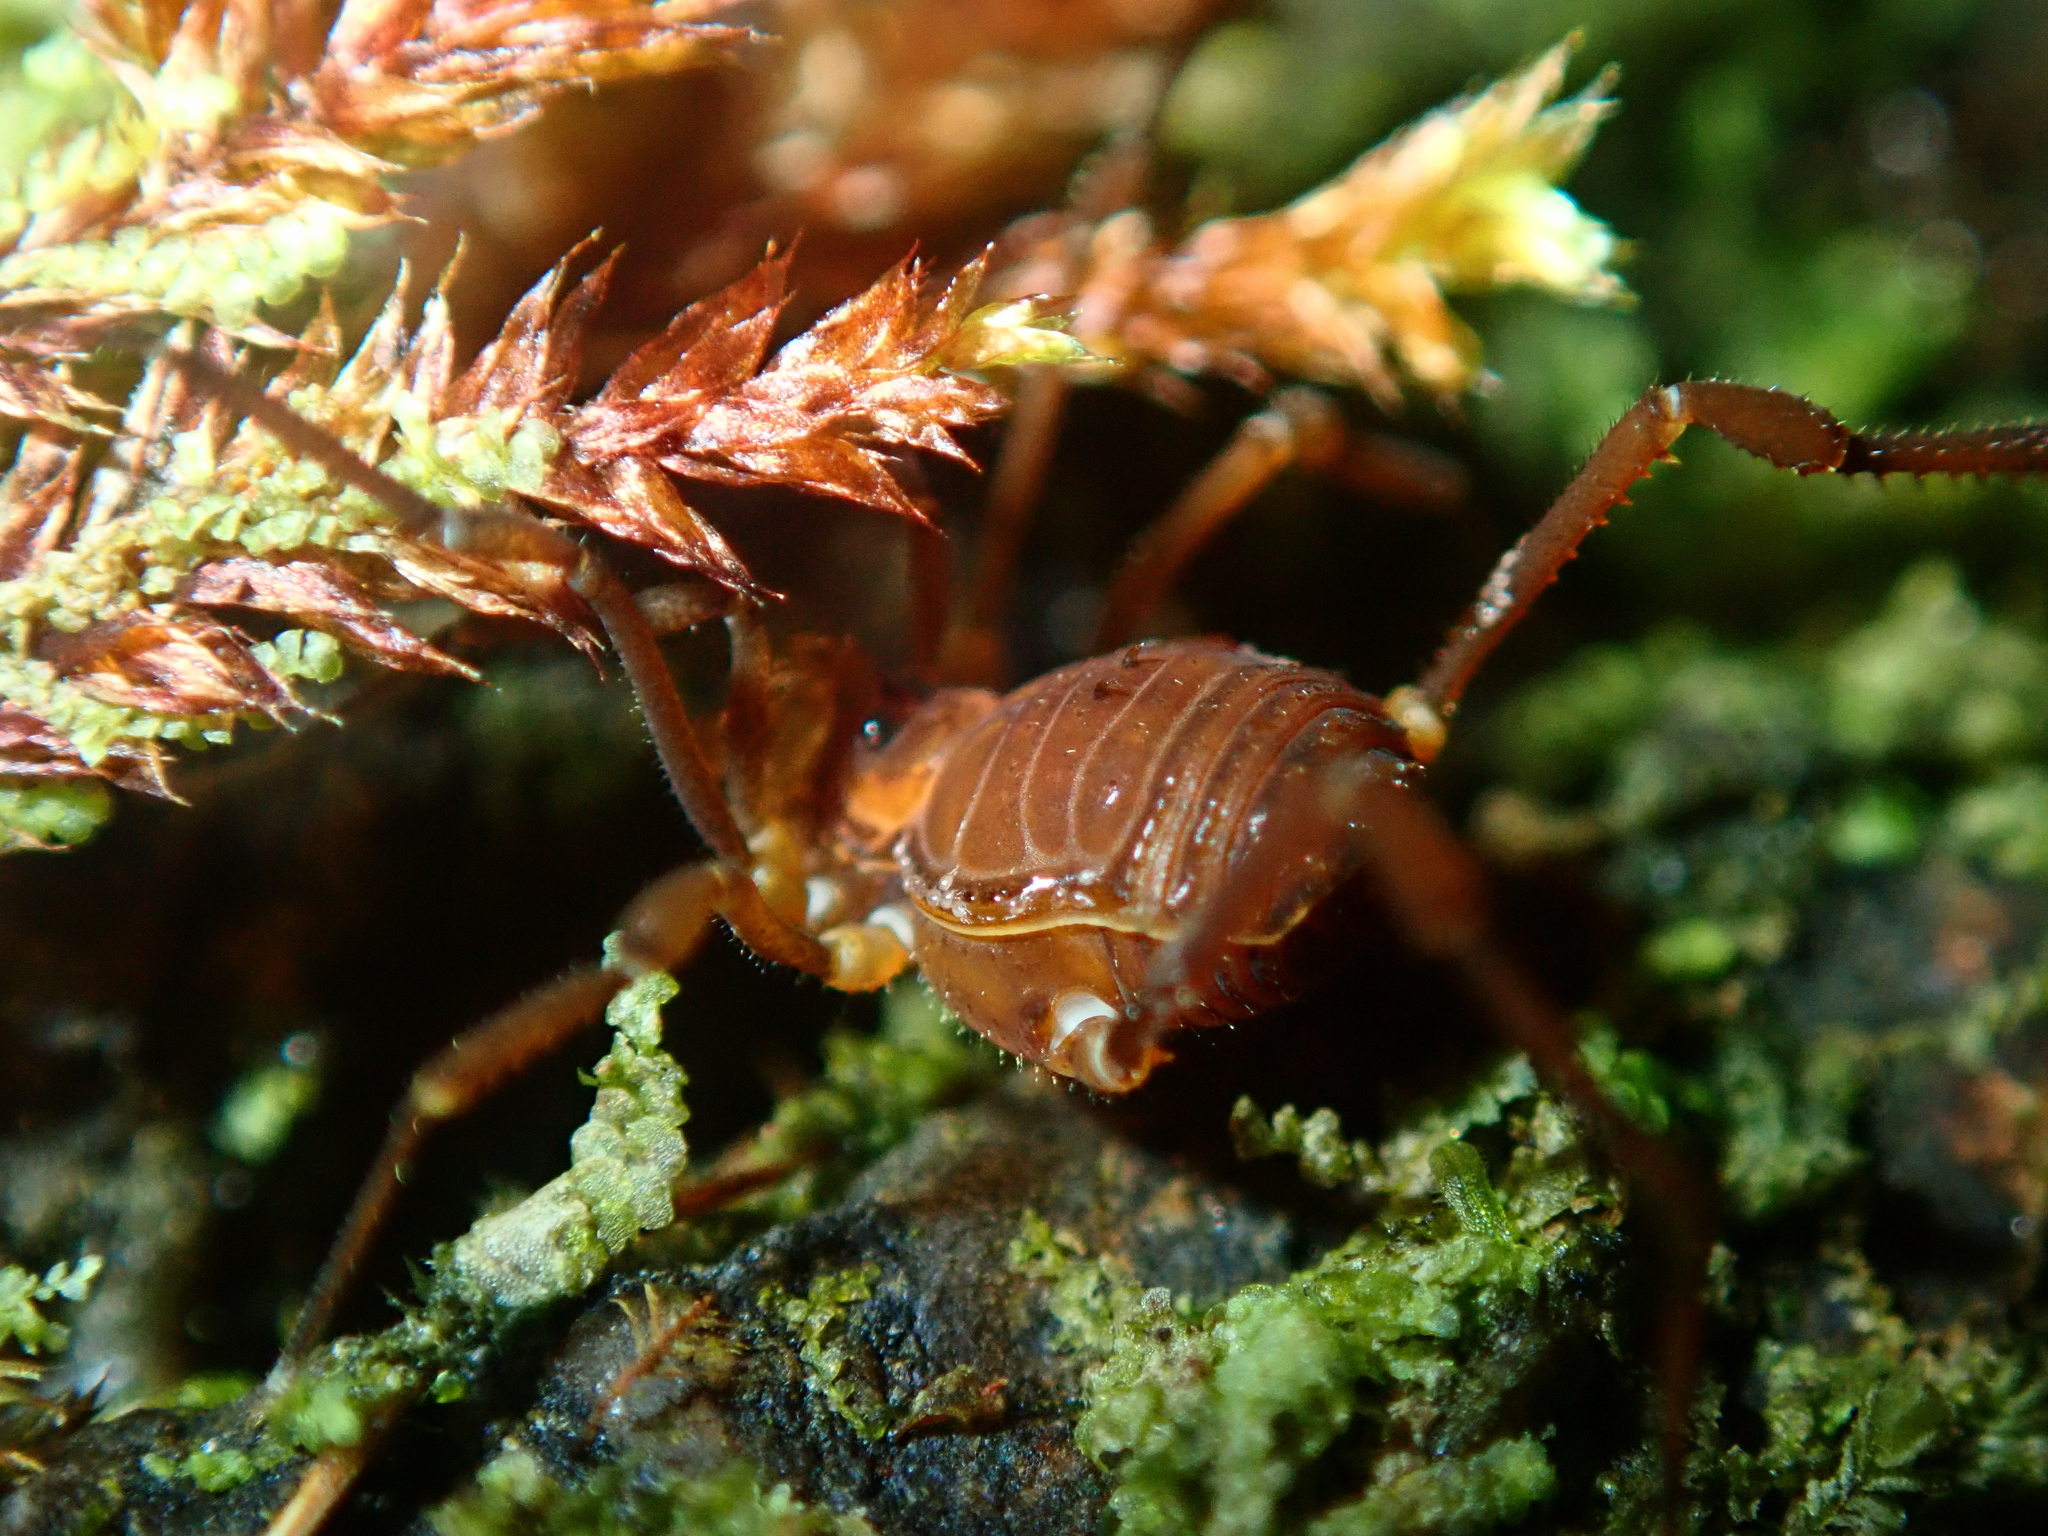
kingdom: Animalia
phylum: Arthropoda
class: Arachnida
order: Opiliones
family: Gonyleptidae
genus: Ogloblinia
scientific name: Ogloblinia argenteopilosa
